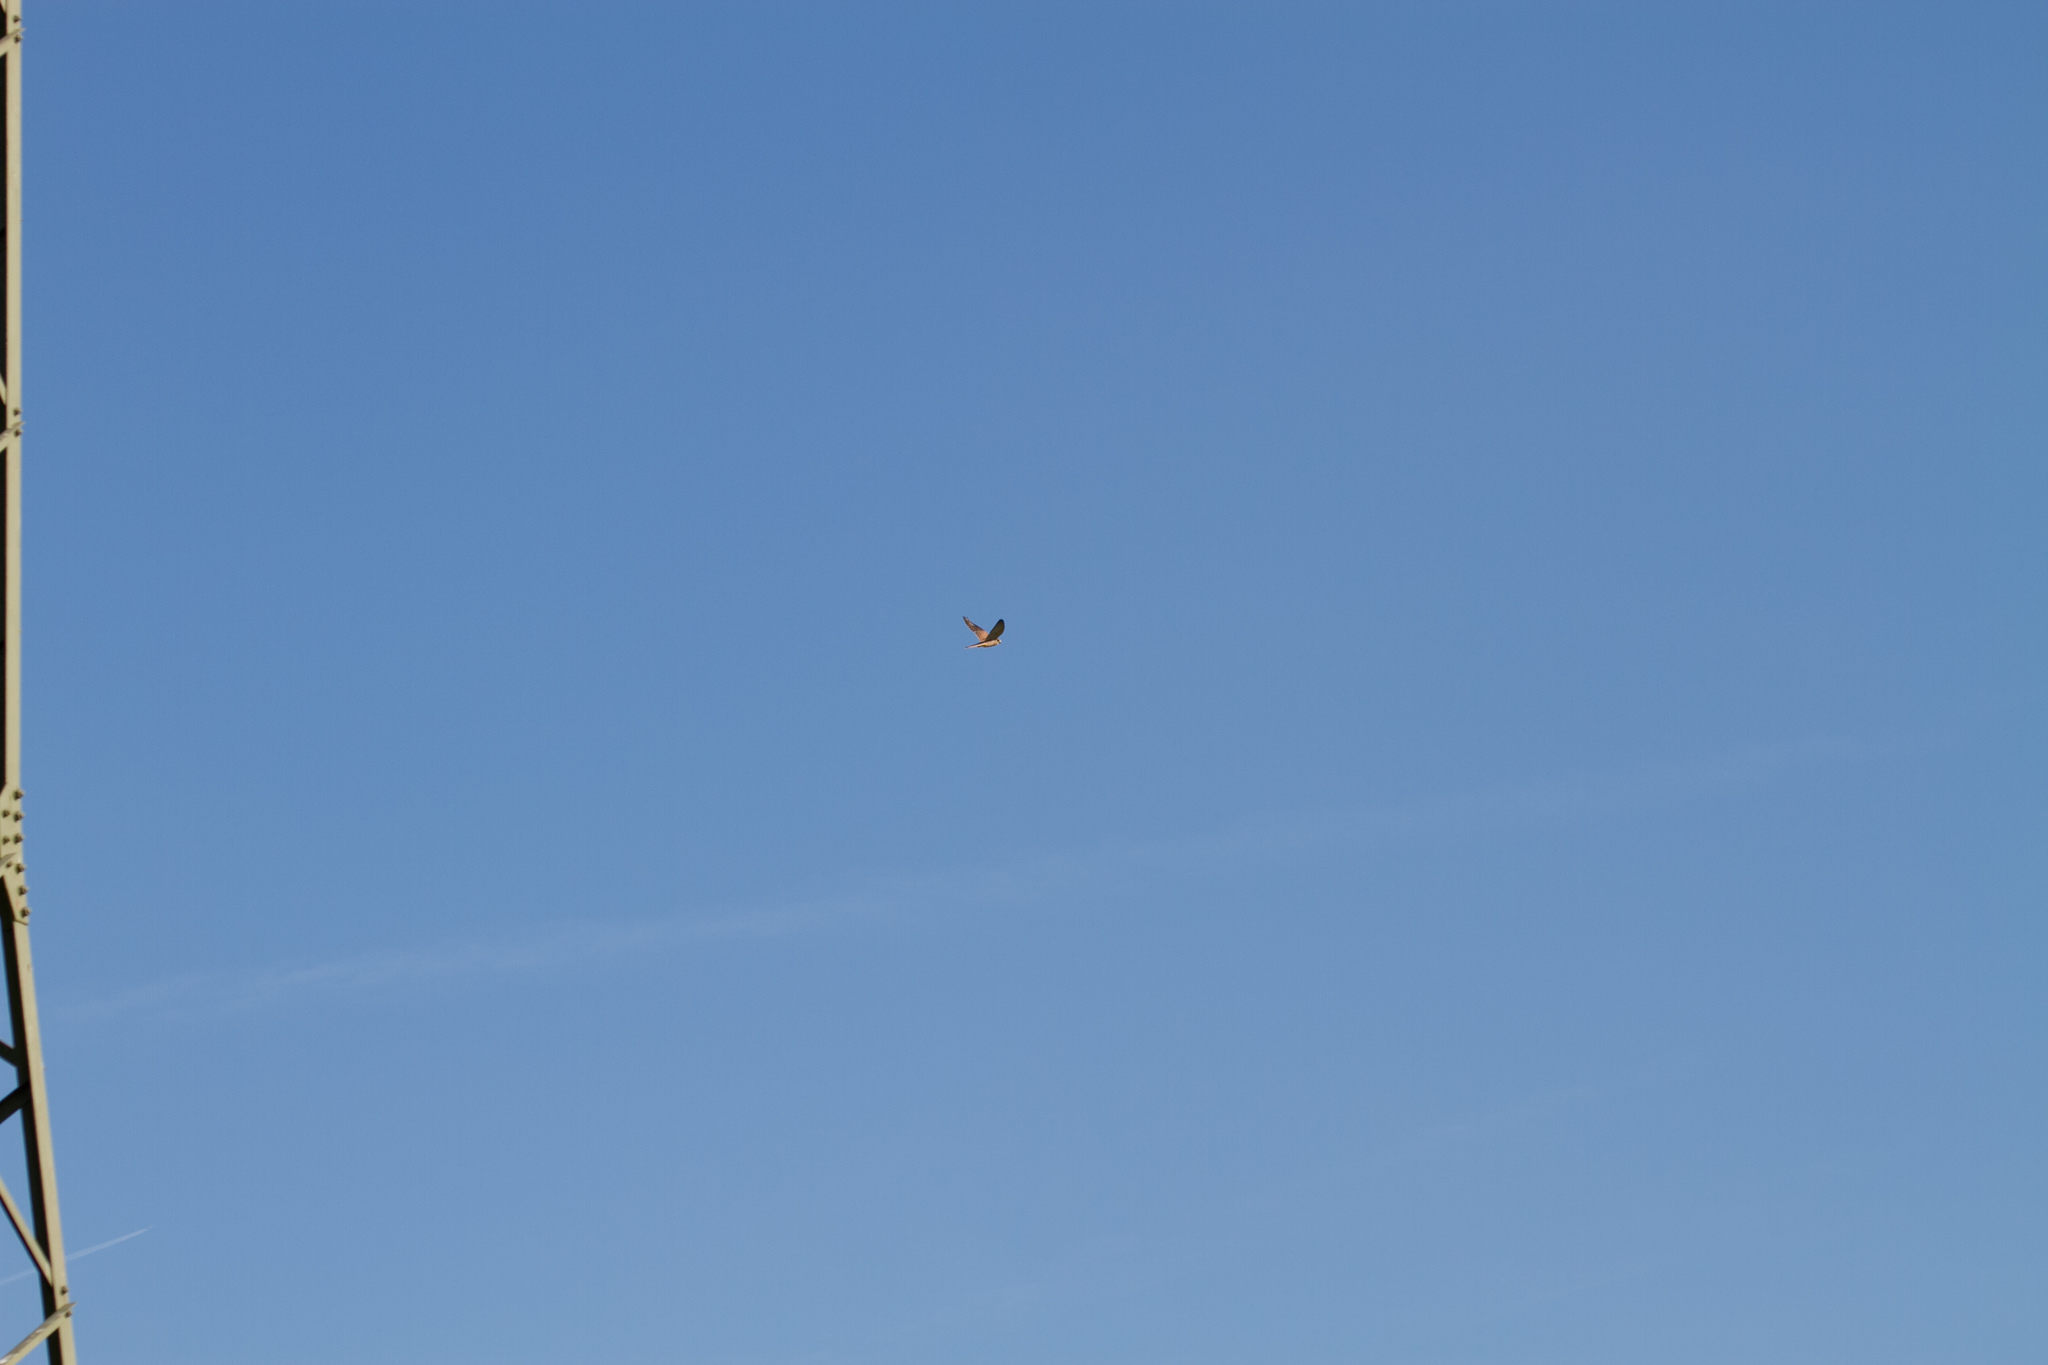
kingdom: Animalia
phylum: Chordata
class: Aves
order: Falconiformes
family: Falconidae
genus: Falco
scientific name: Falco tinnunculus
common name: Common kestrel
